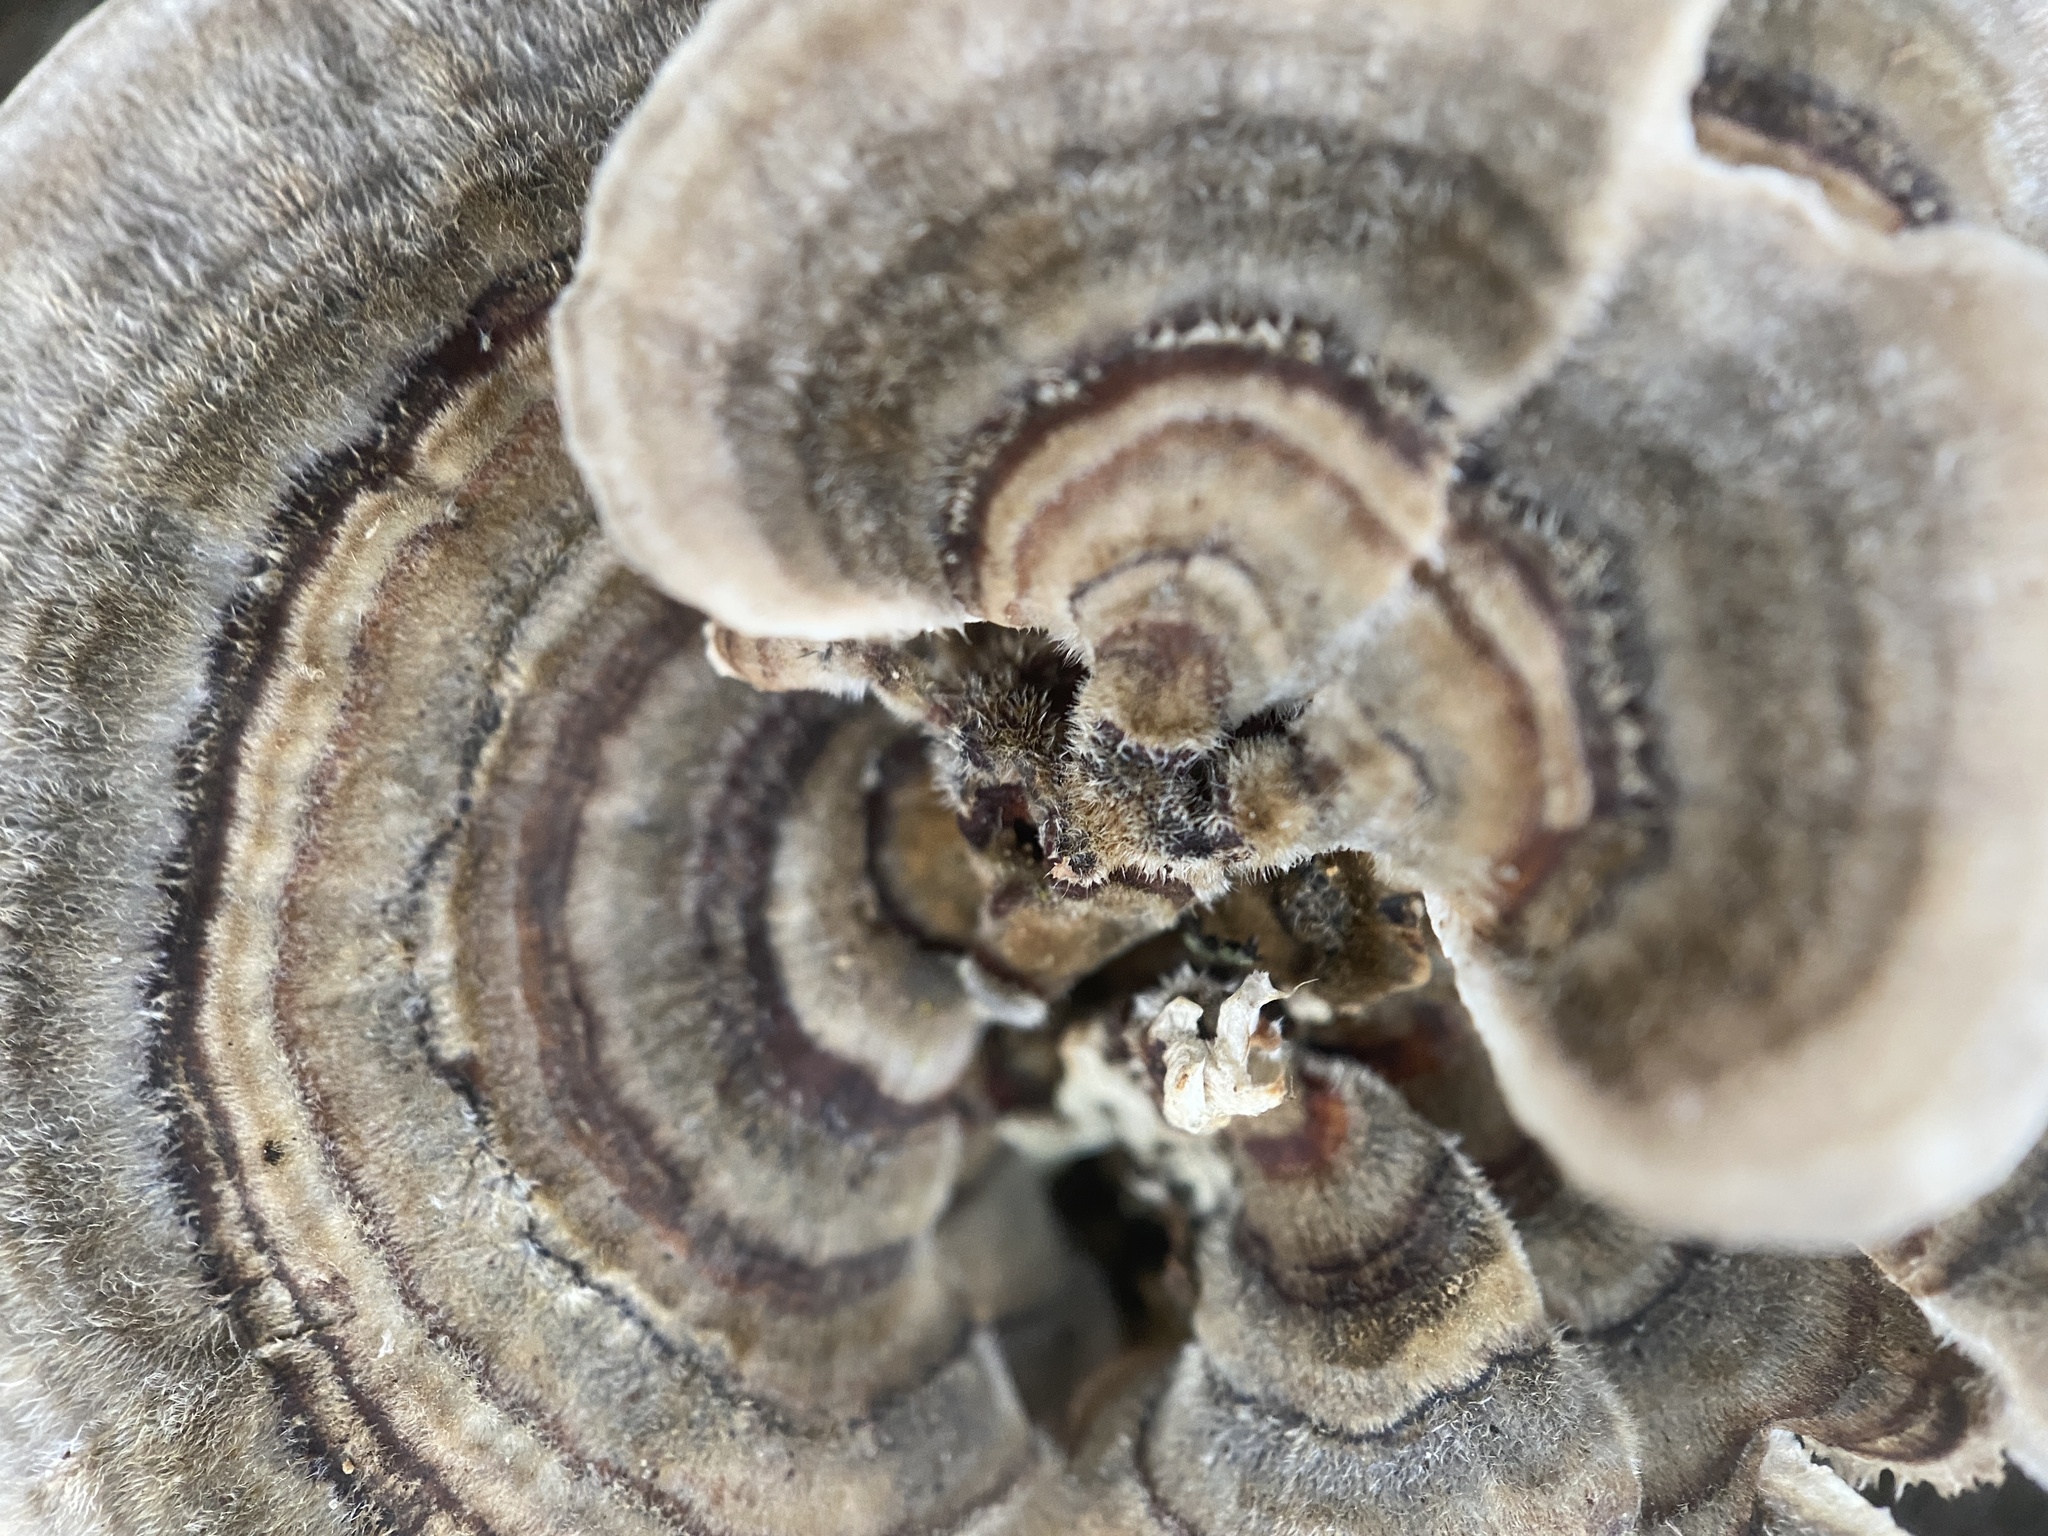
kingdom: Fungi
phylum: Basidiomycota
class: Agaricomycetes
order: Polyporales
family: Polyporaceae
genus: Trametes
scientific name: Trametes versicolor
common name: Turkeytail
